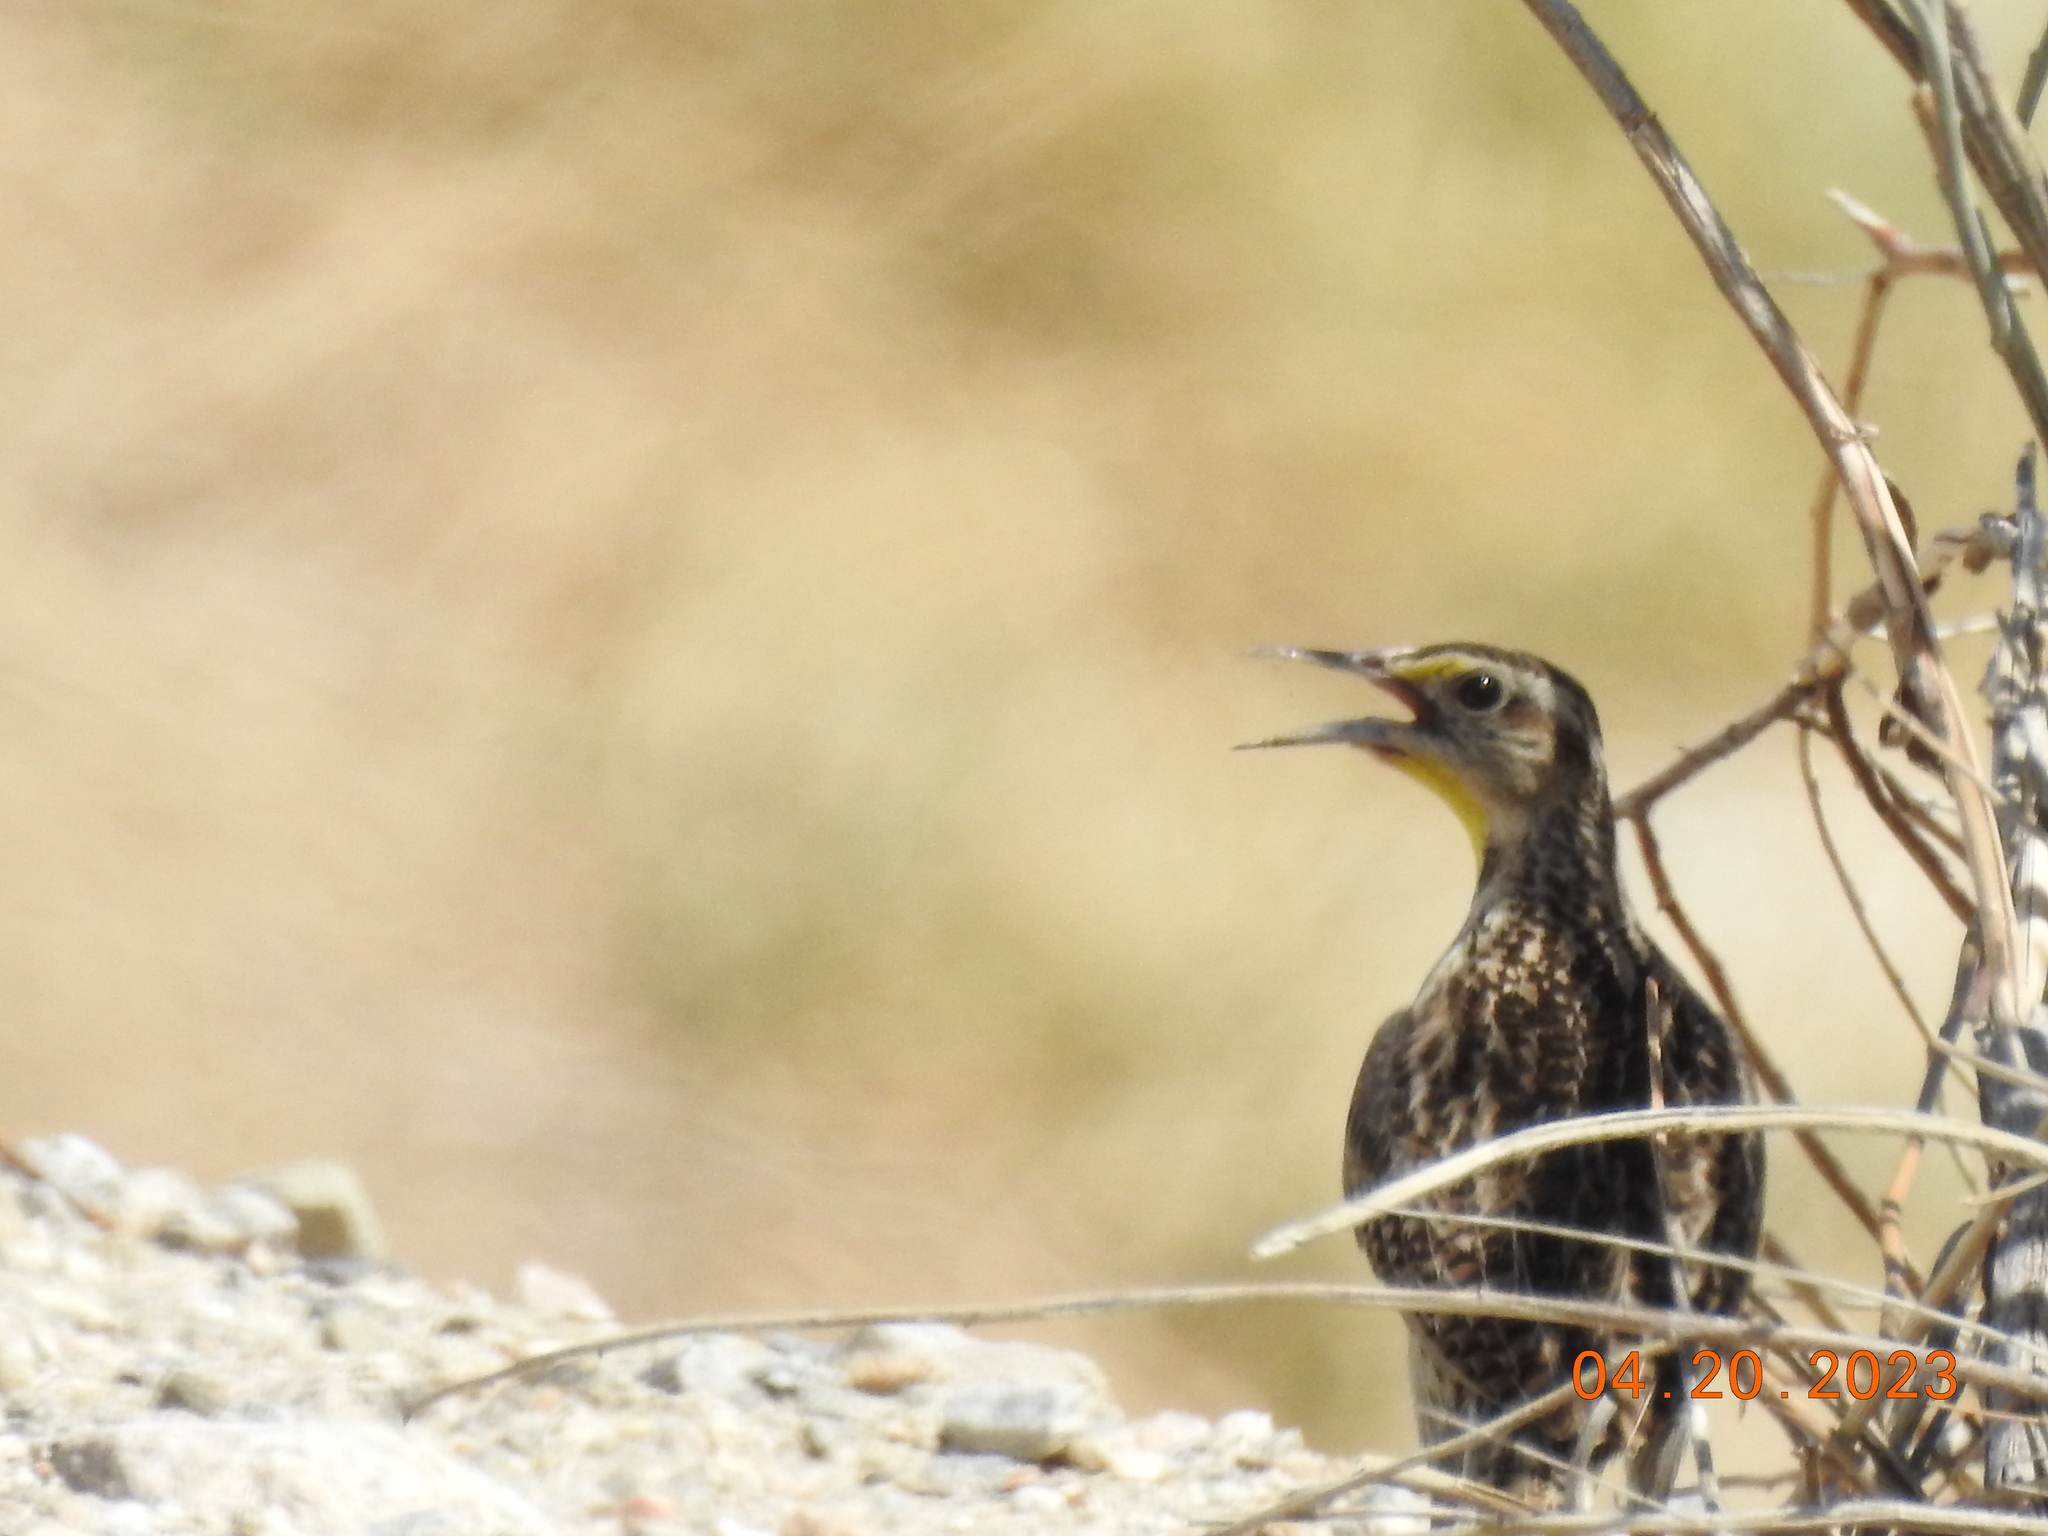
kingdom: Animalia
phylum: Chordata
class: Aves
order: Passeriformes
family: Icteridae
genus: Sturnella
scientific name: Sturnella neglecta
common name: Western meadowlark
